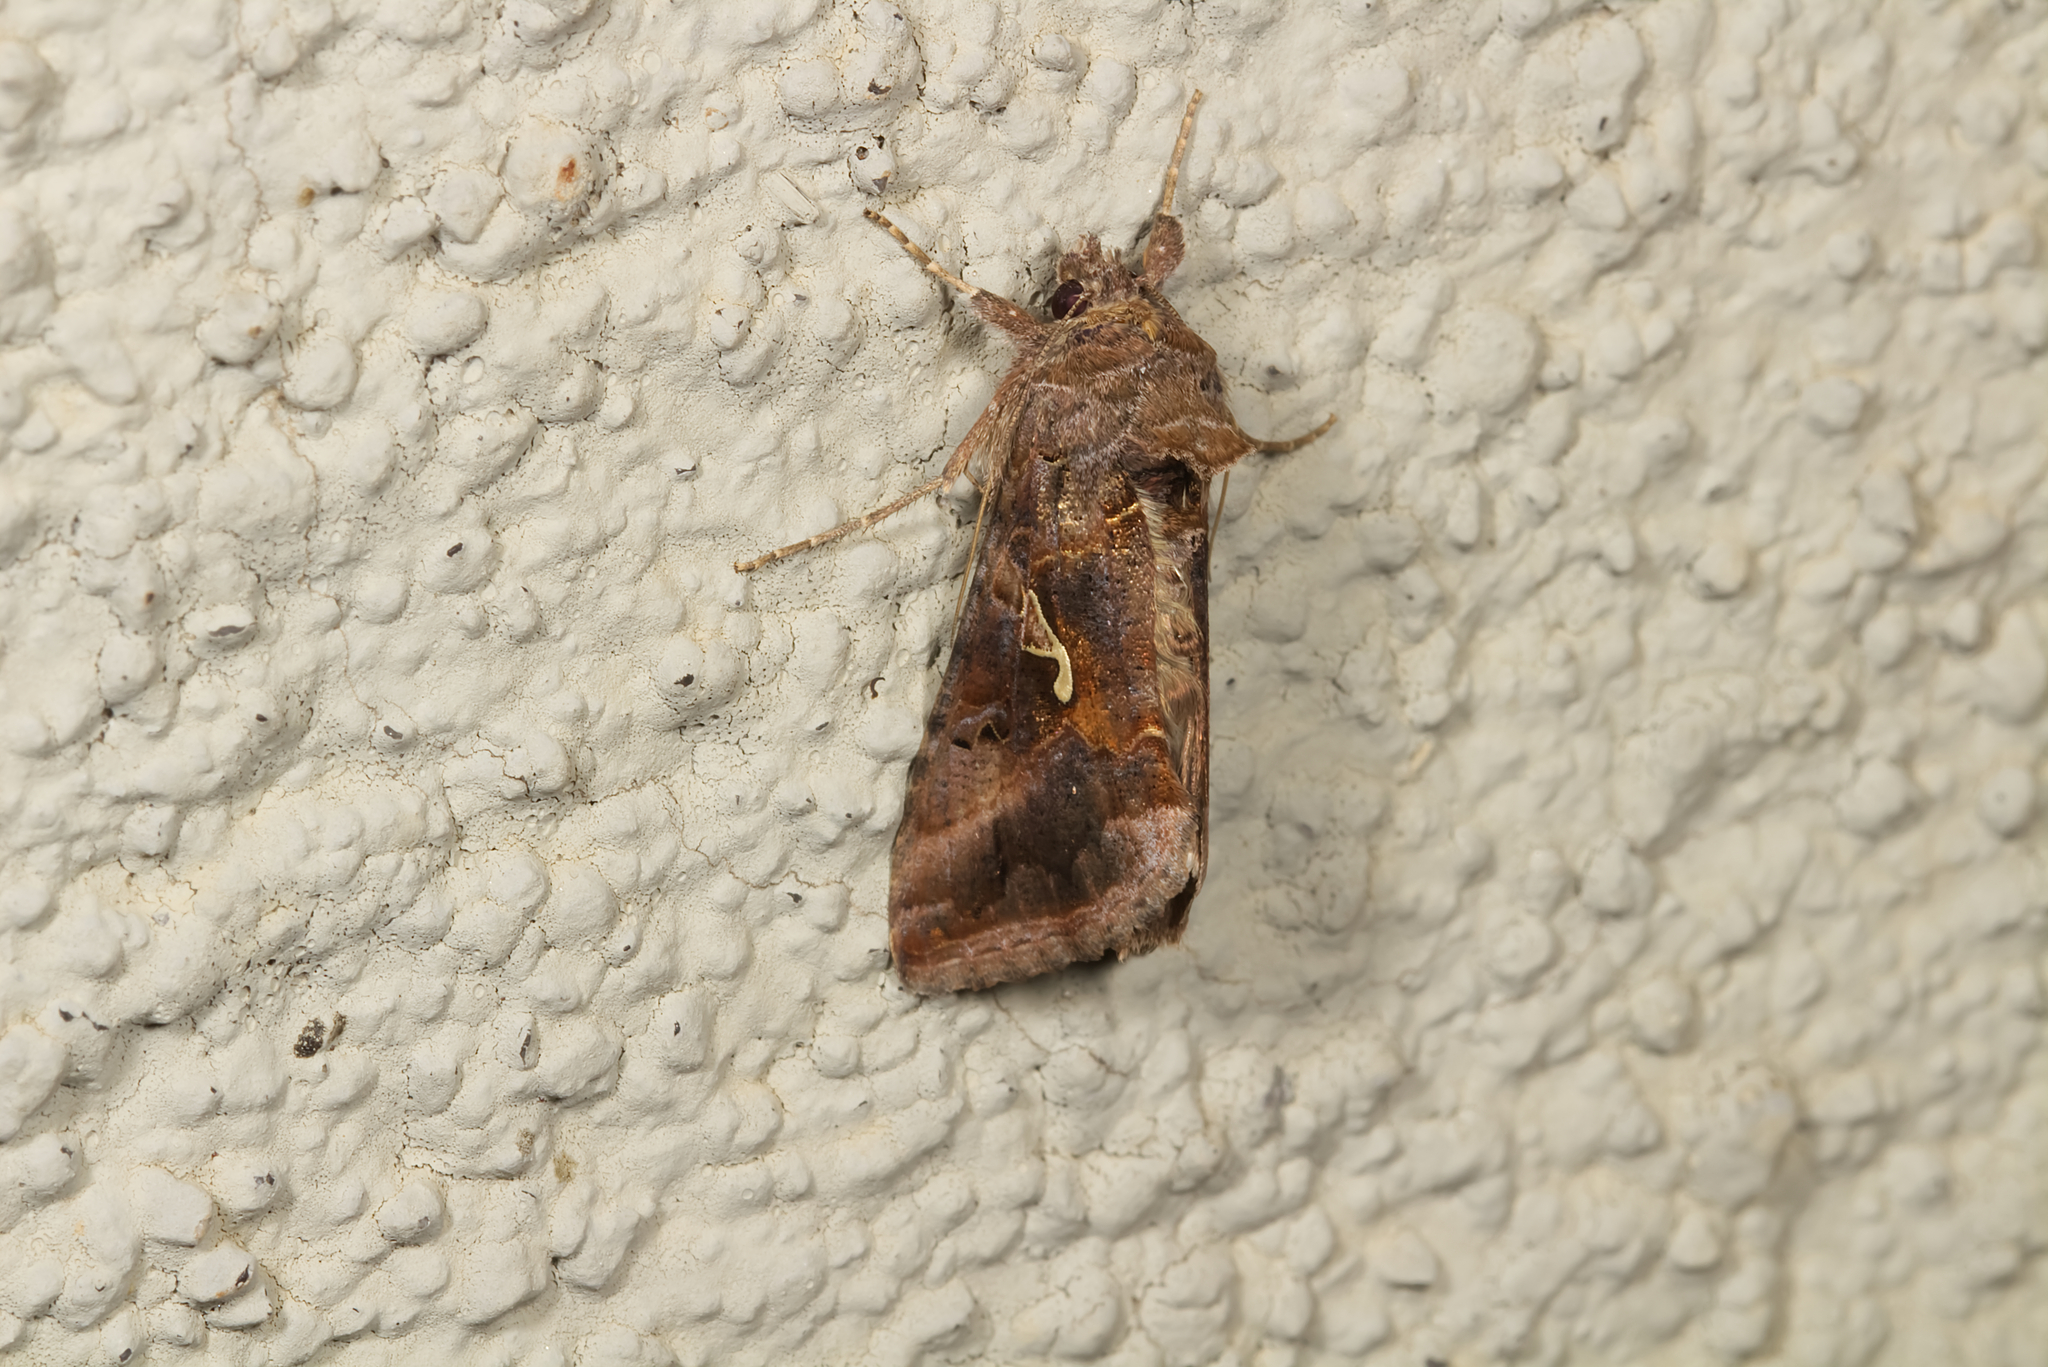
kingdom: Animalia
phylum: Arthropoda
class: Insecta
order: Lepidoptera
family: Noctuidae
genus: Autographa
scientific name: Autographa gamma
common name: Silver y
